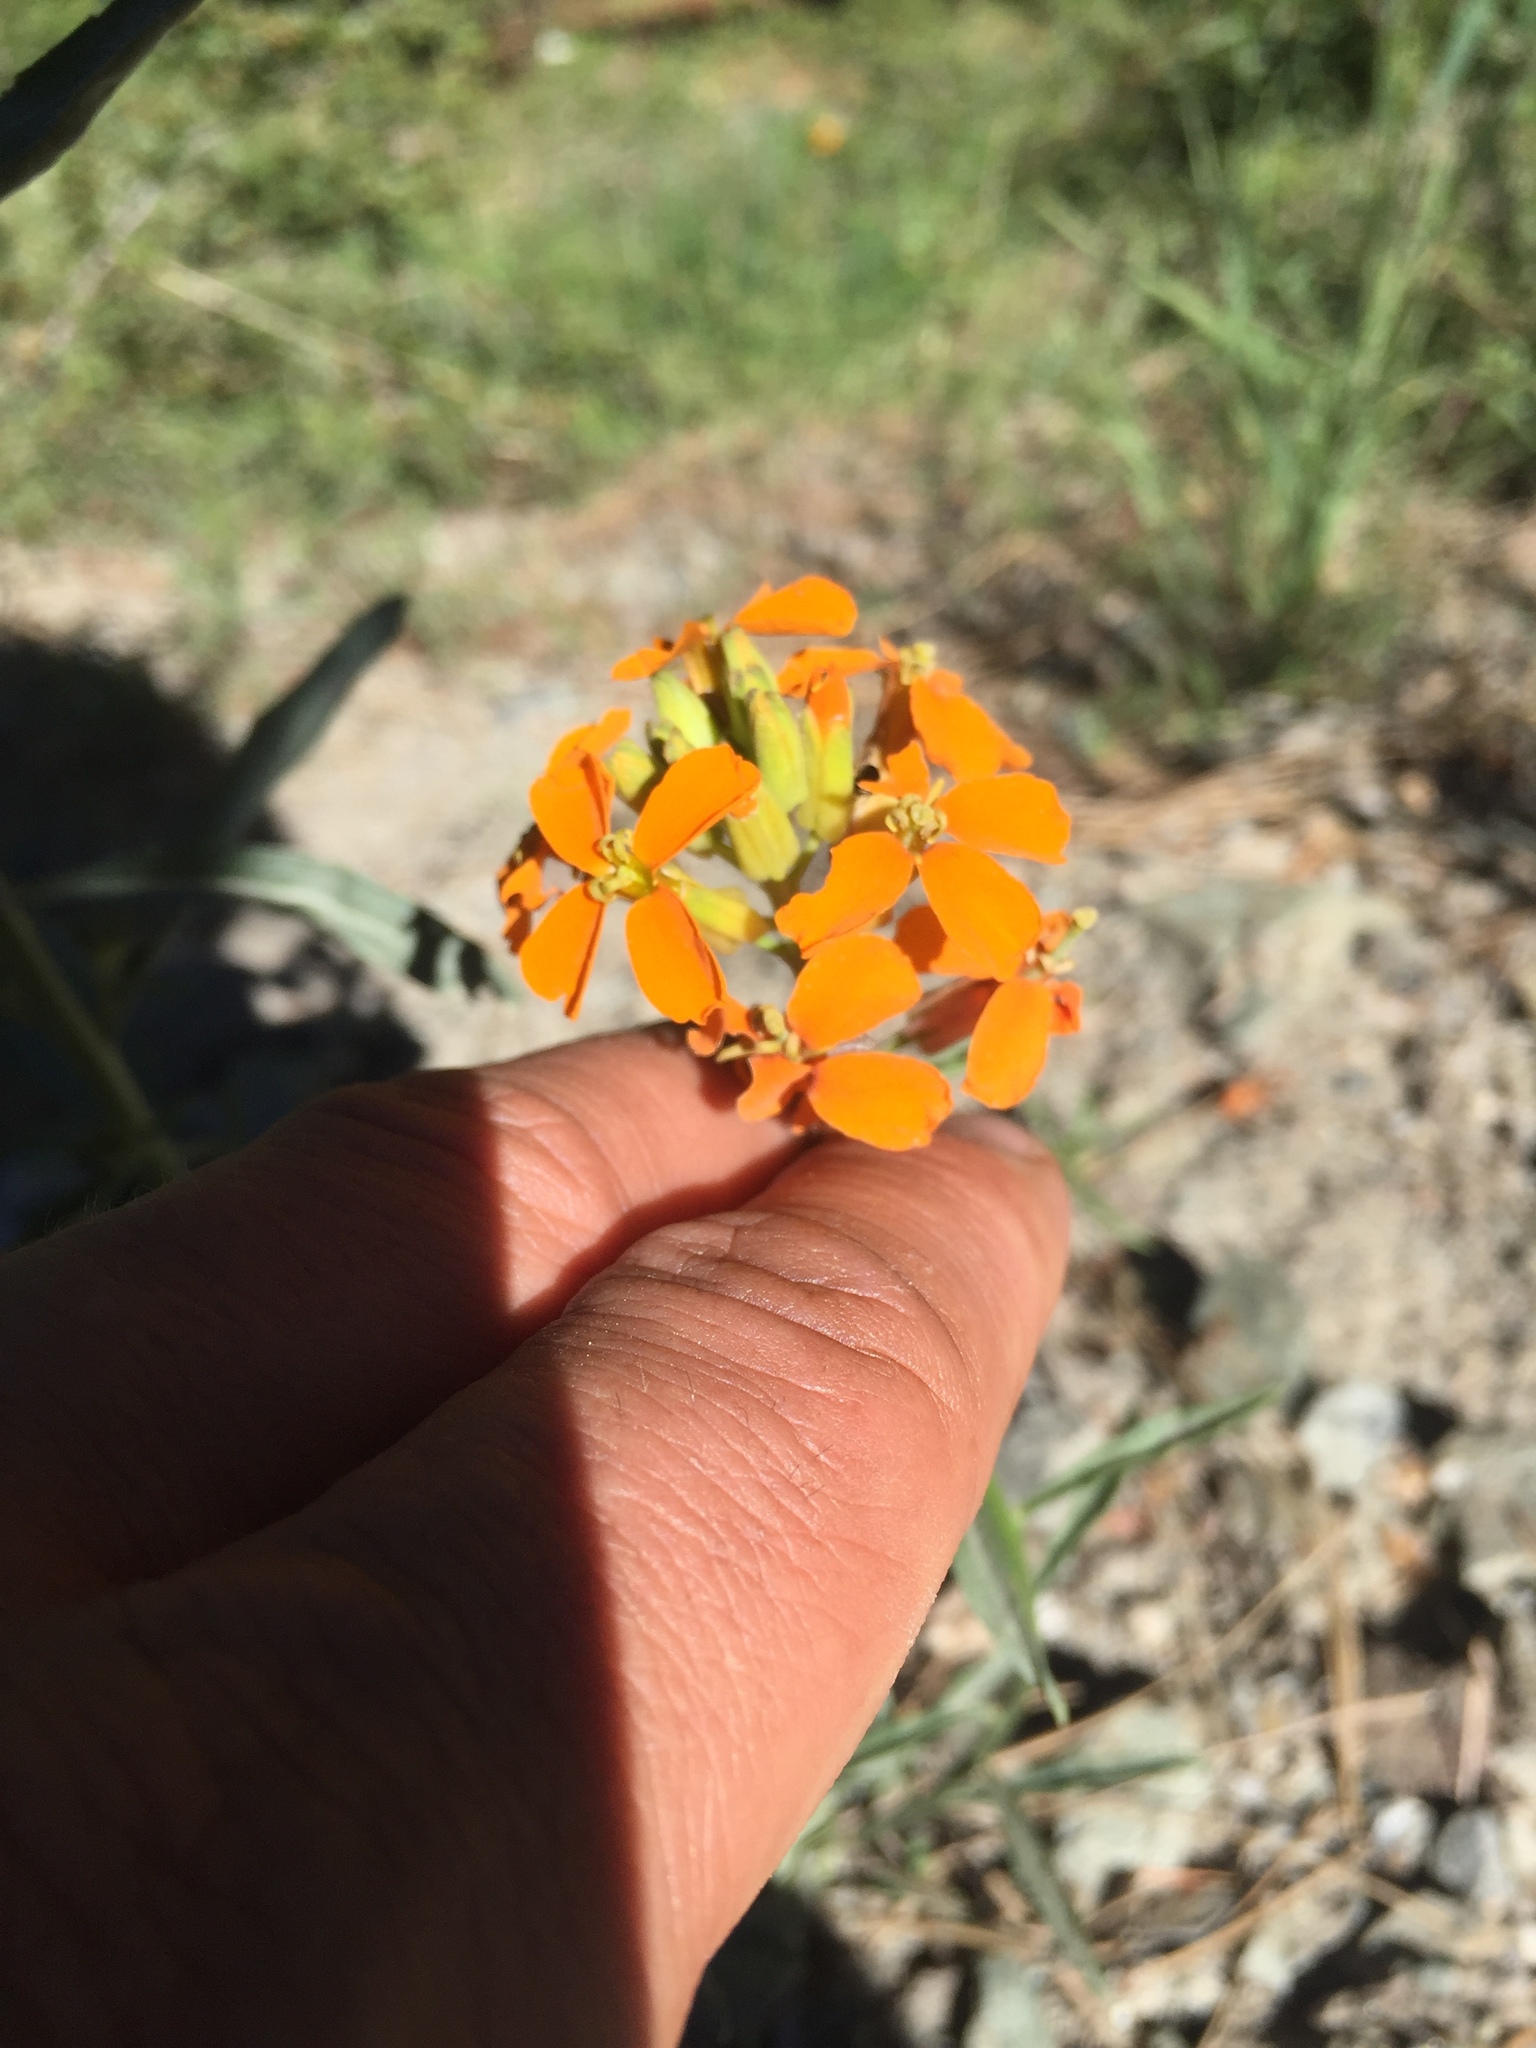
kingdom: Plantae
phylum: Tracheophyta
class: Magnoliopsida
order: Brassicales
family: Brassicaceae
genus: Erysimum
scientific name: Erysimum capitatum
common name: Western wallflower
